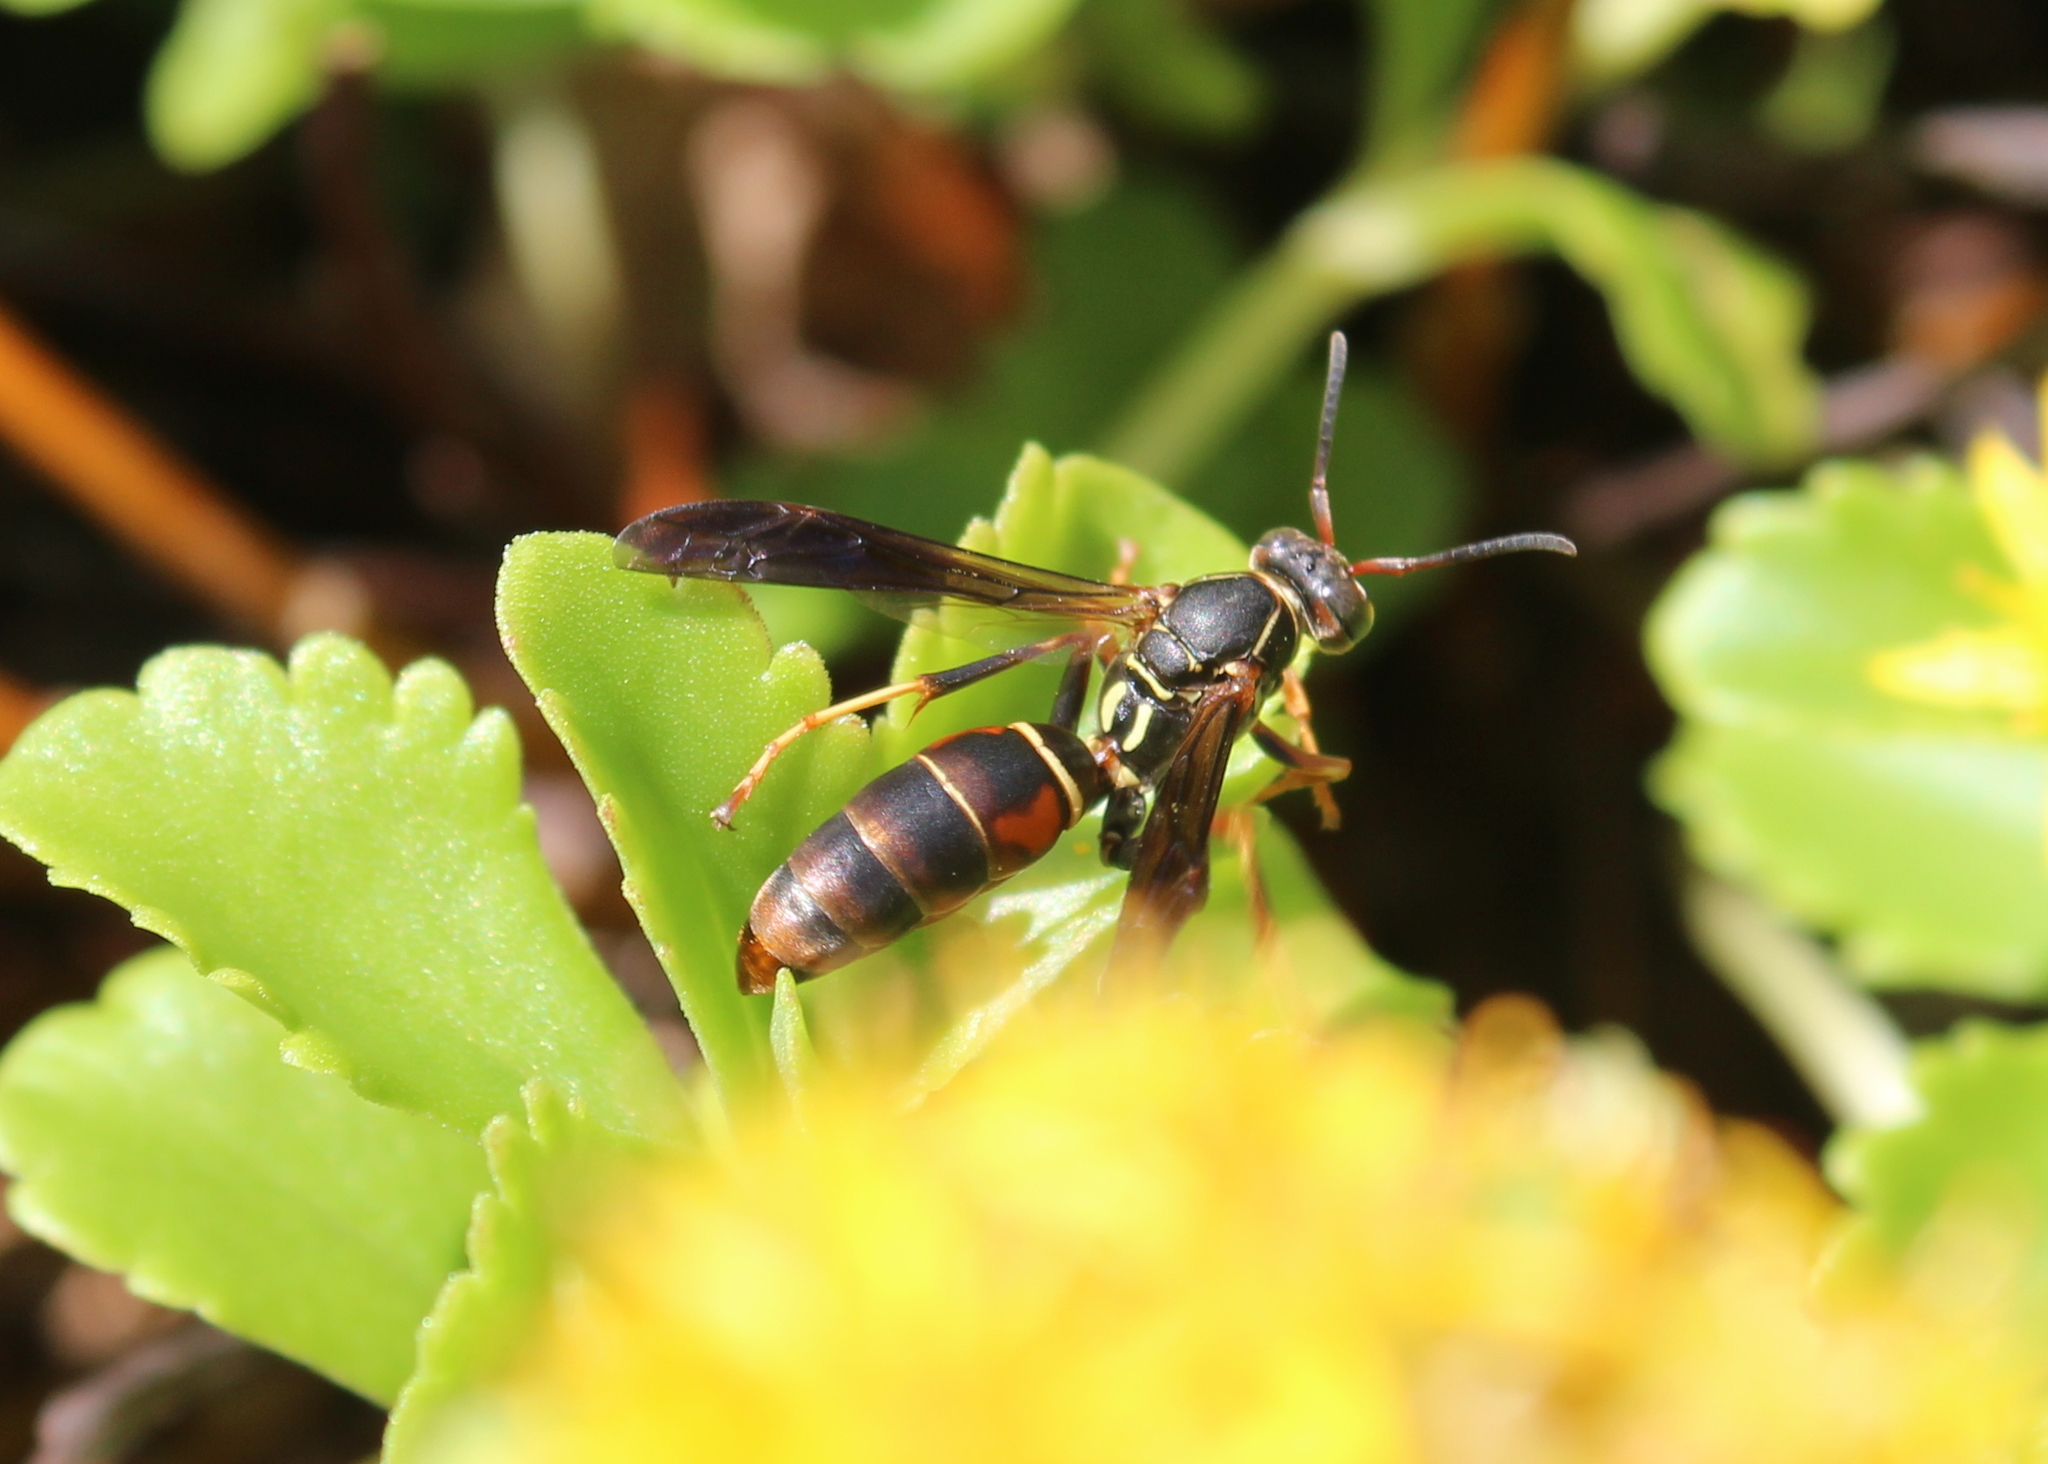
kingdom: Animalia
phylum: Arthropoda
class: Insecta
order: Hymenoptera
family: Eumenidae
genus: Polistes
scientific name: Polistes fuscatus
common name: Dark paper wasp
